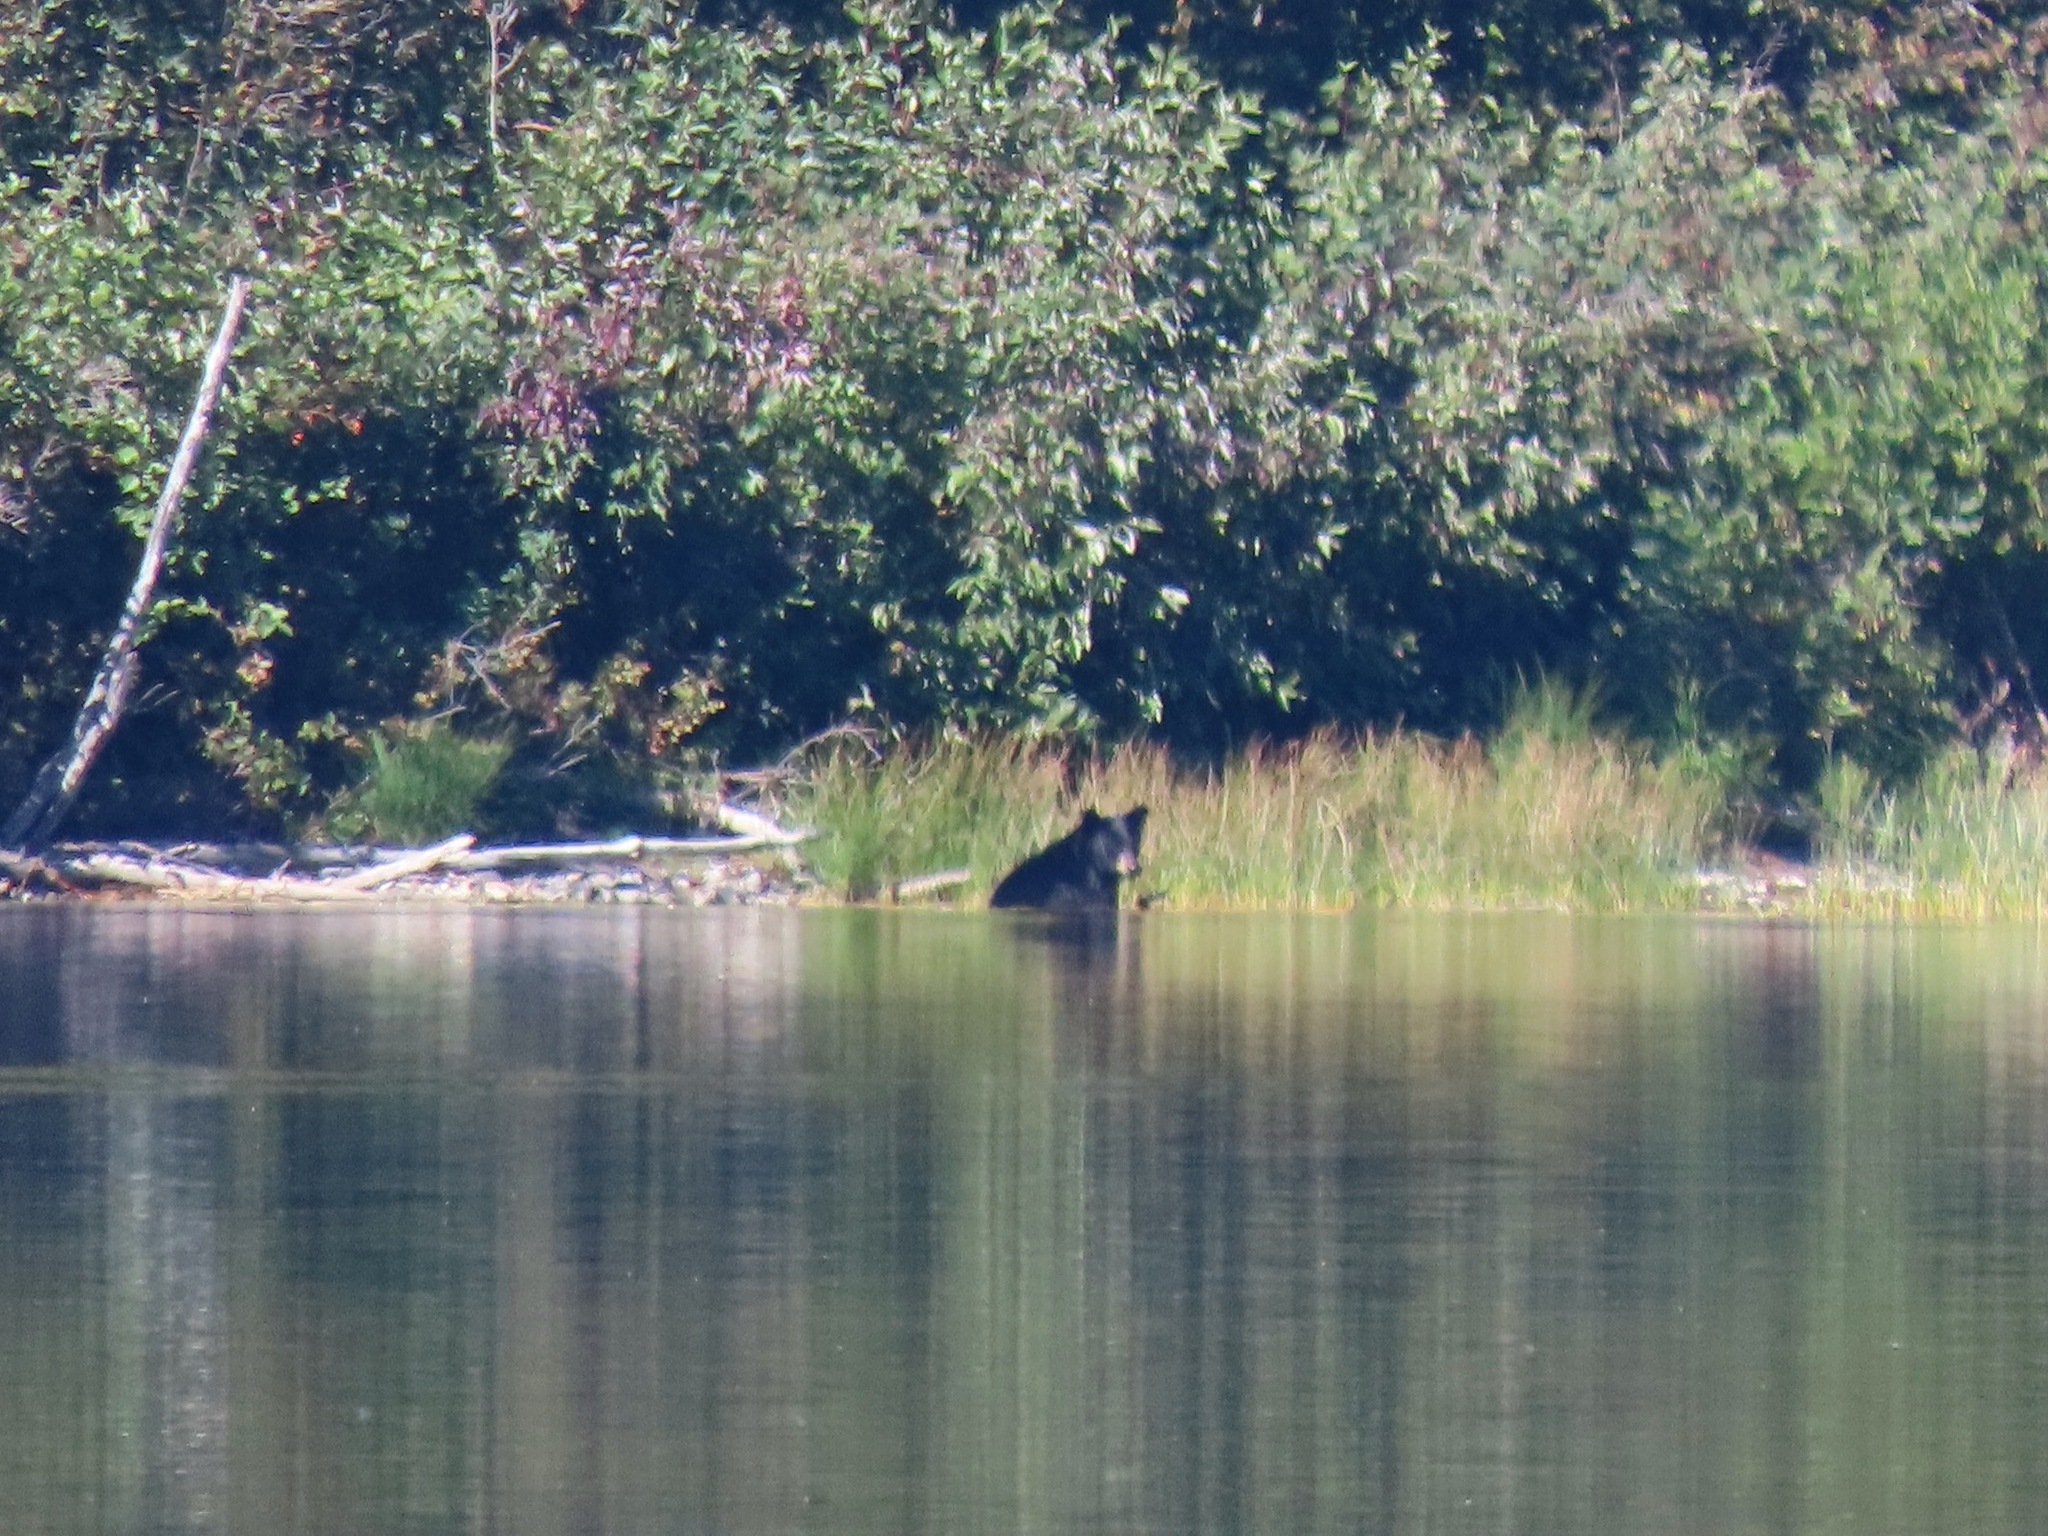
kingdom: Animalia
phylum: Chordata
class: Mammalia
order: Carnivora
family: Ursidae
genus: Ursus
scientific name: Ursus americanus
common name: American black bear
